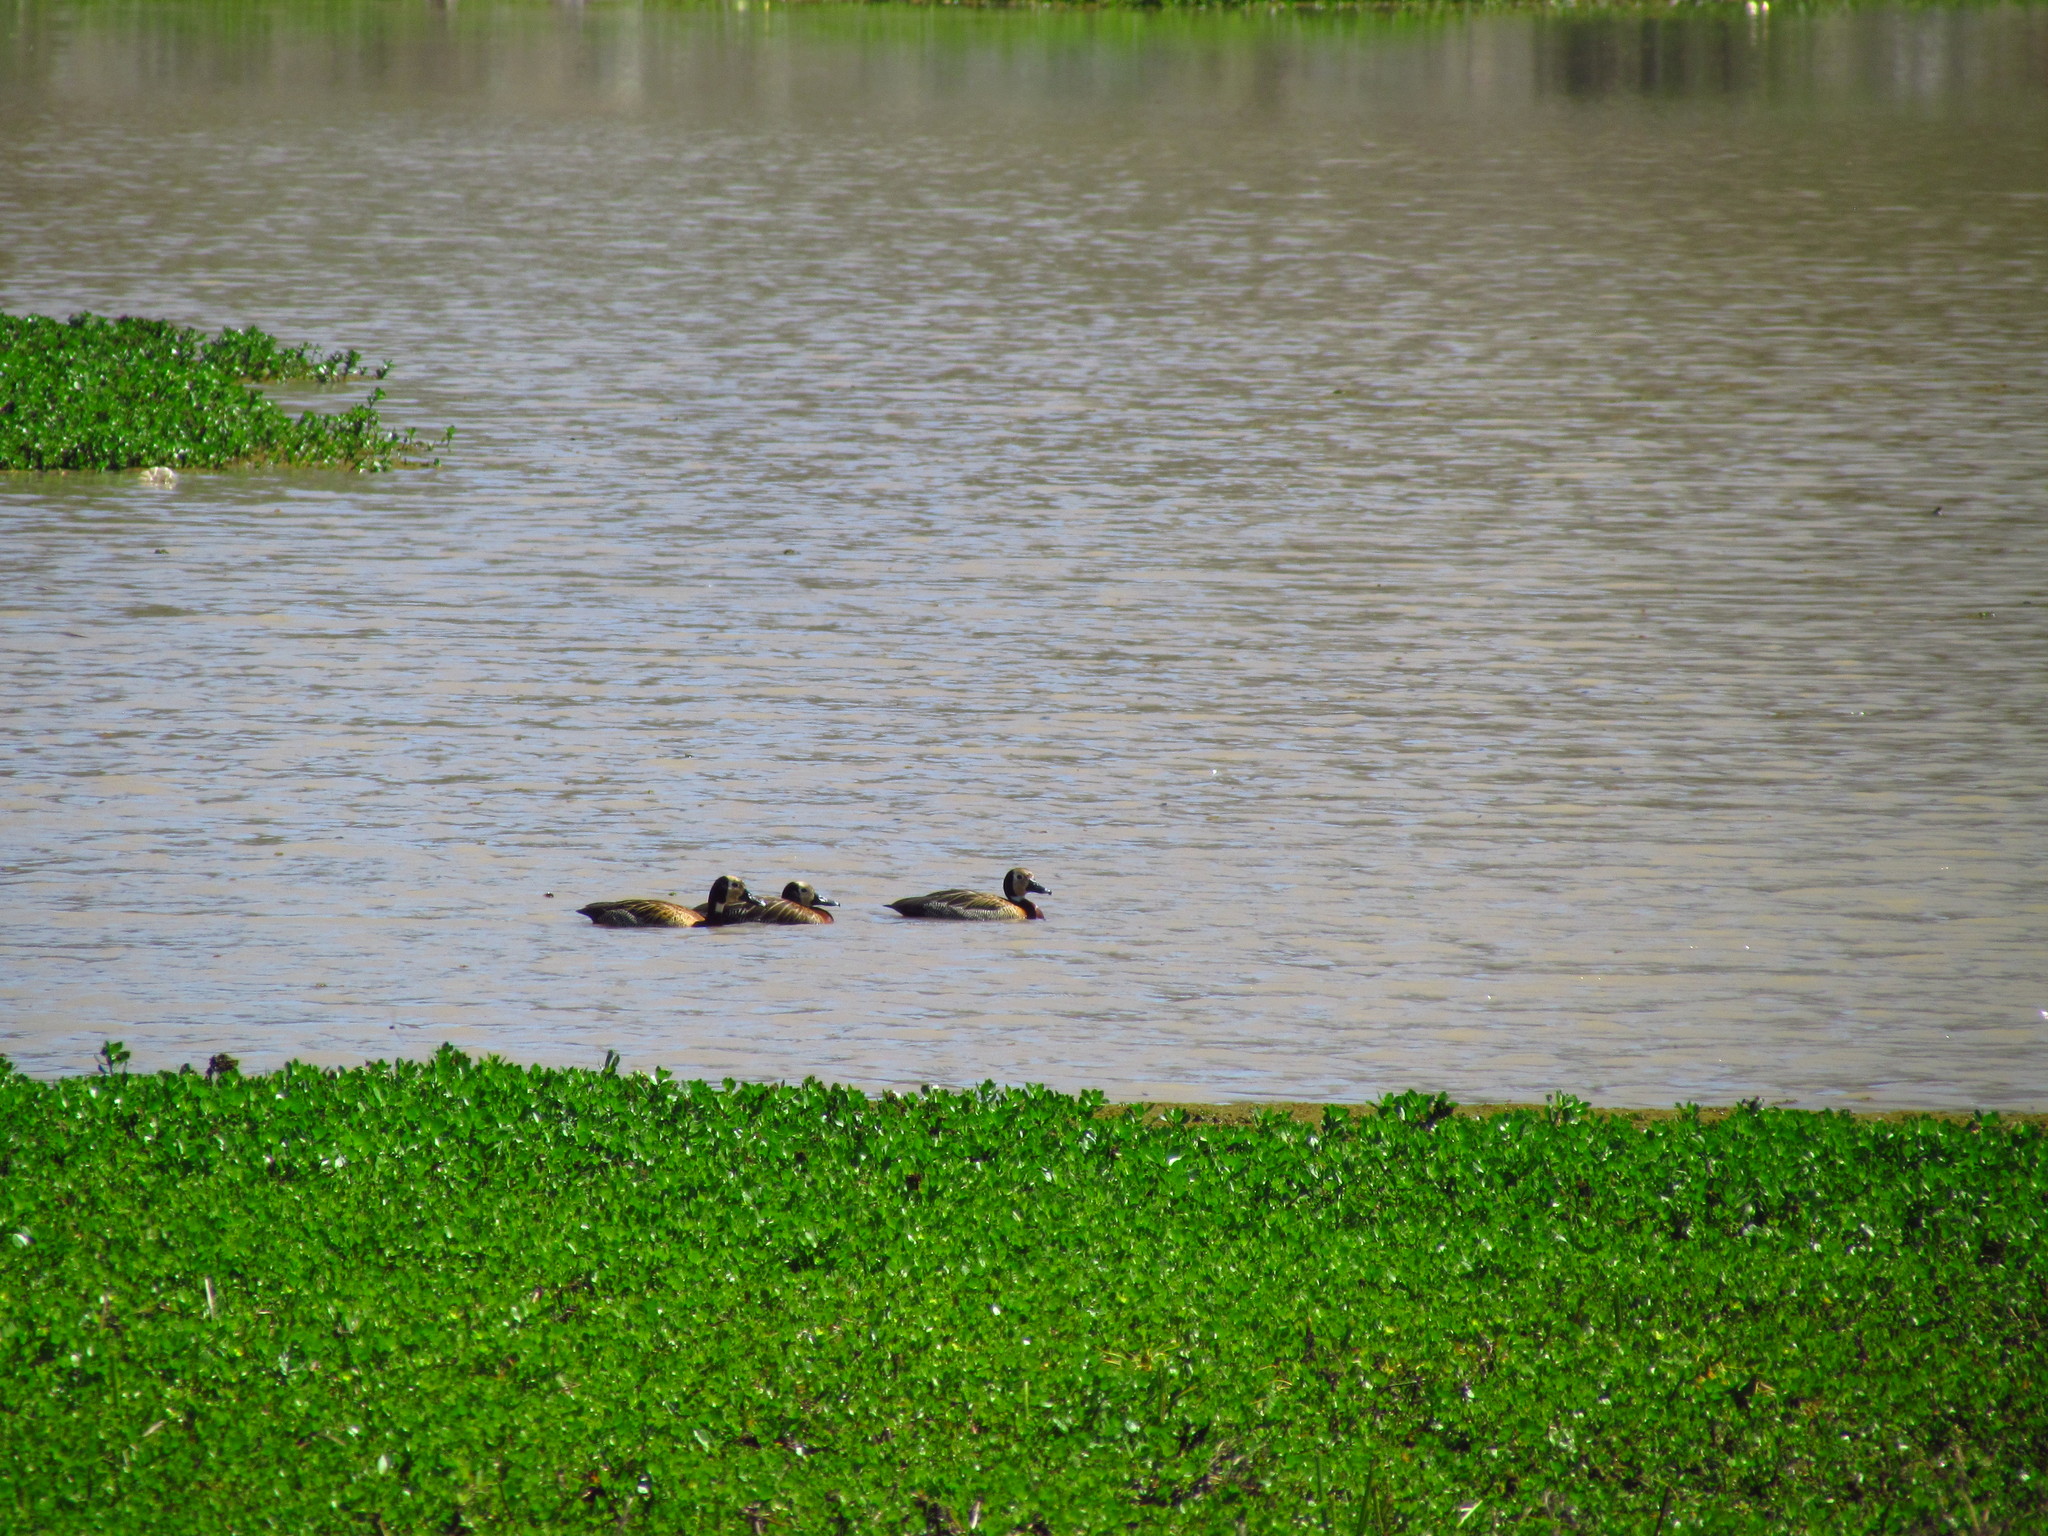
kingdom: Animalia
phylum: Chordata
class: Aves
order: Anseriformes
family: Anatidae
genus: Dendrocygna
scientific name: Dendrocygna viduata
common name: White-faced whistling duck
